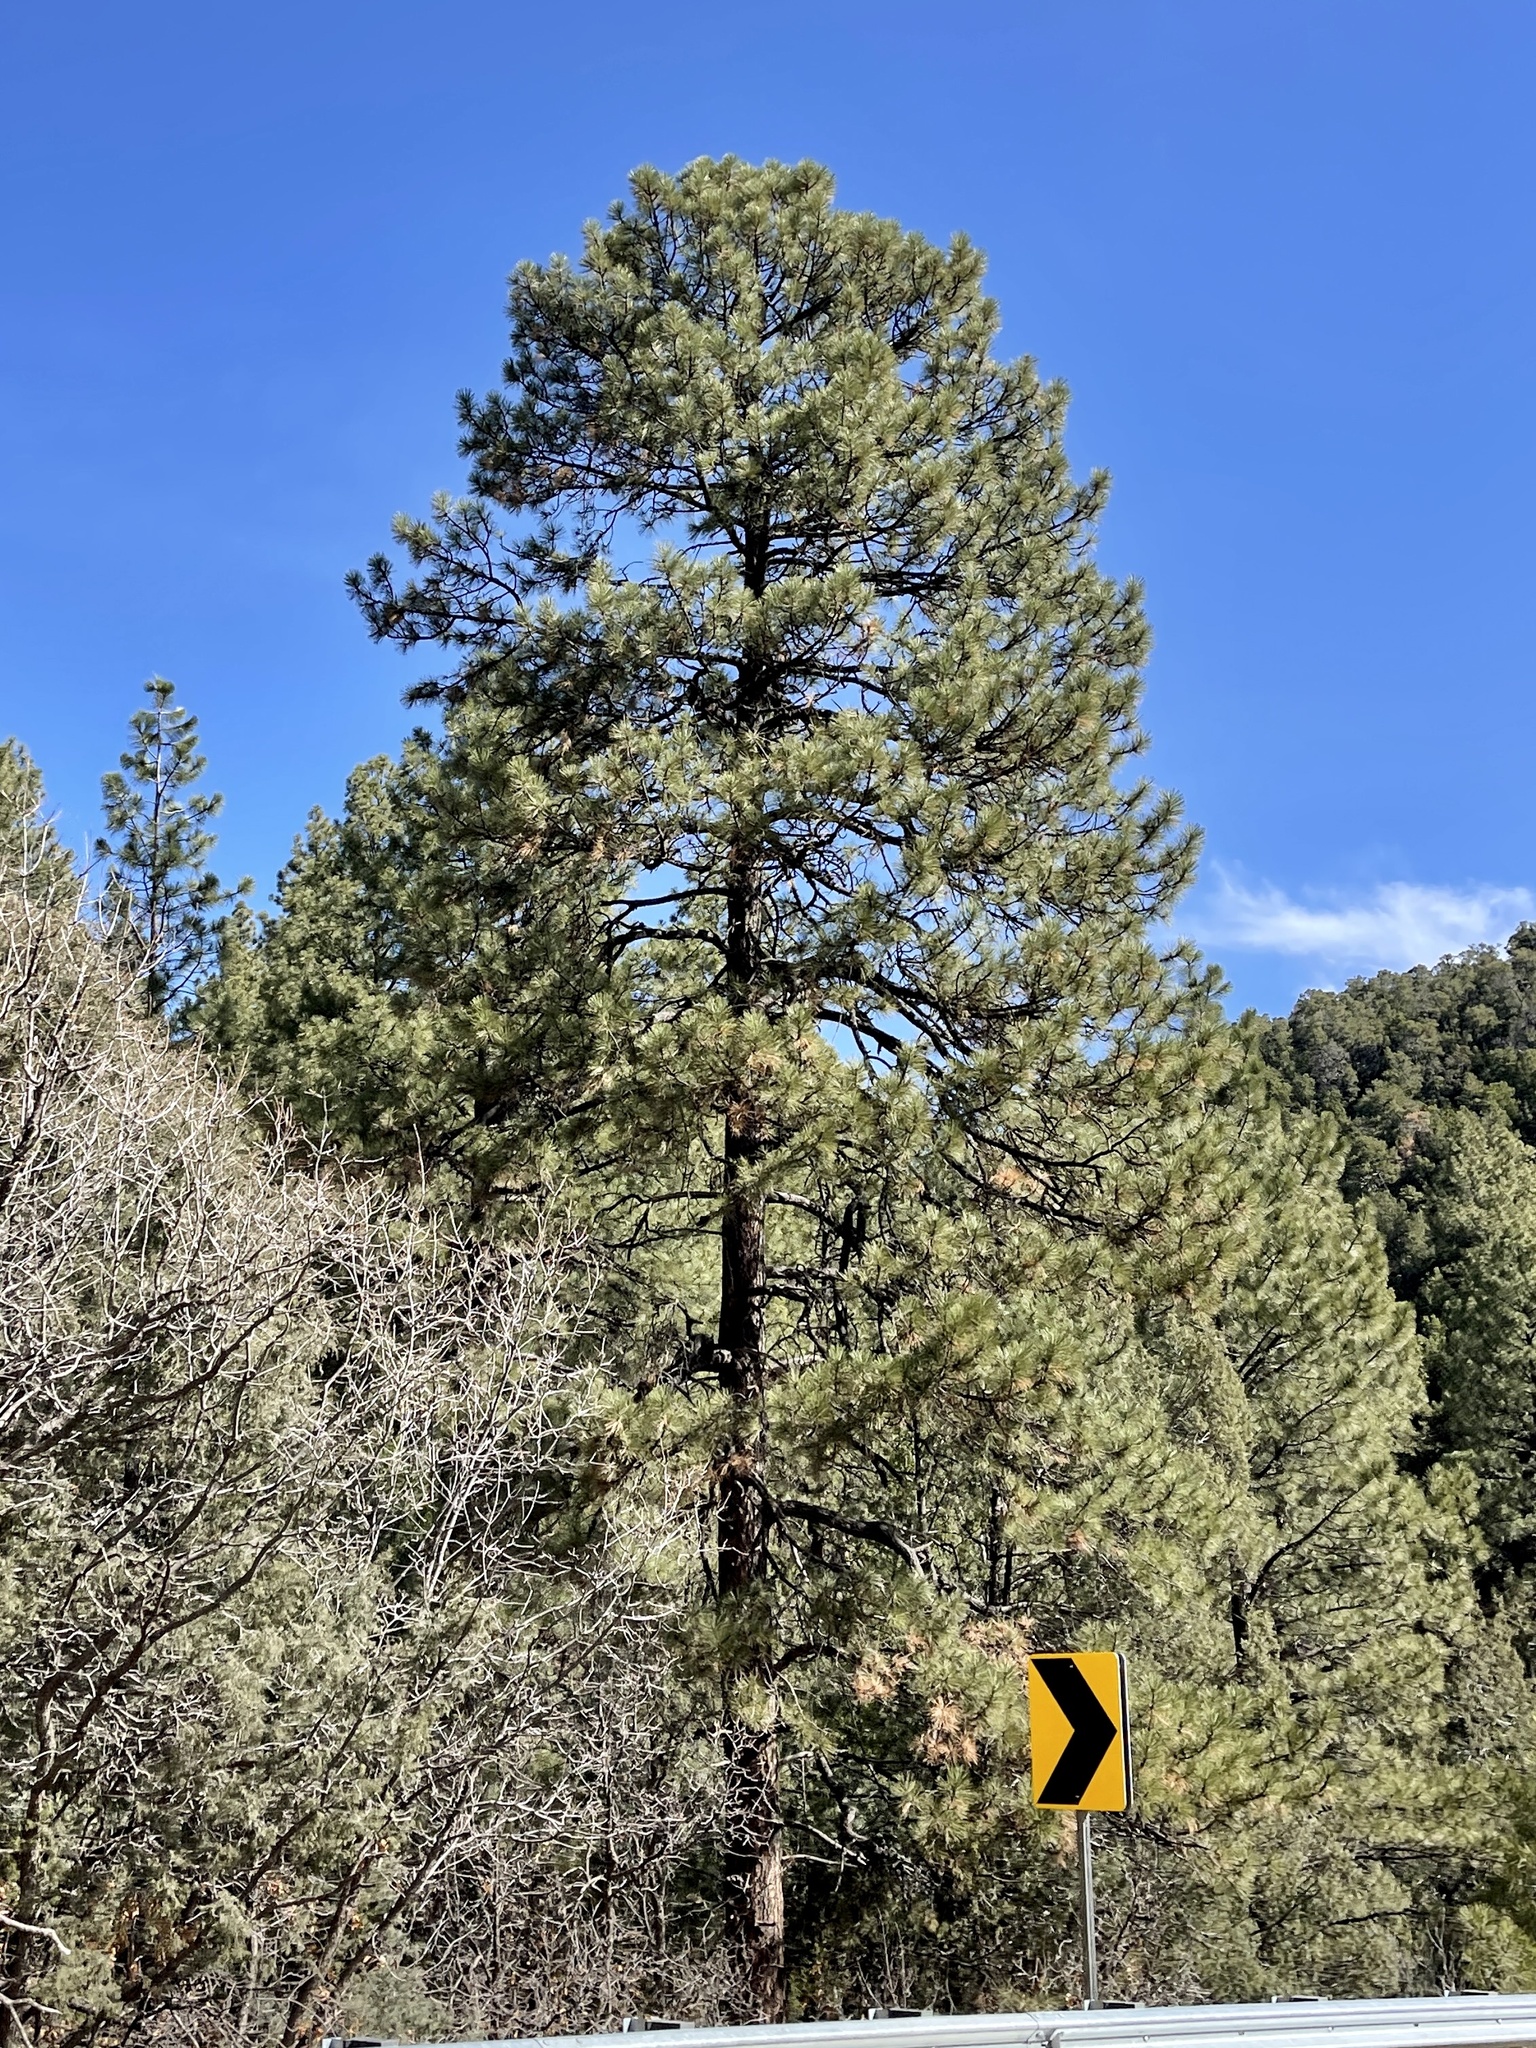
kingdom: Plantae
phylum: Tracheophyta
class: Pinopsida
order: Pinales
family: Pinaceae
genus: Pinus
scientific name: Pinus ponderosa
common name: Western yellow-pine
